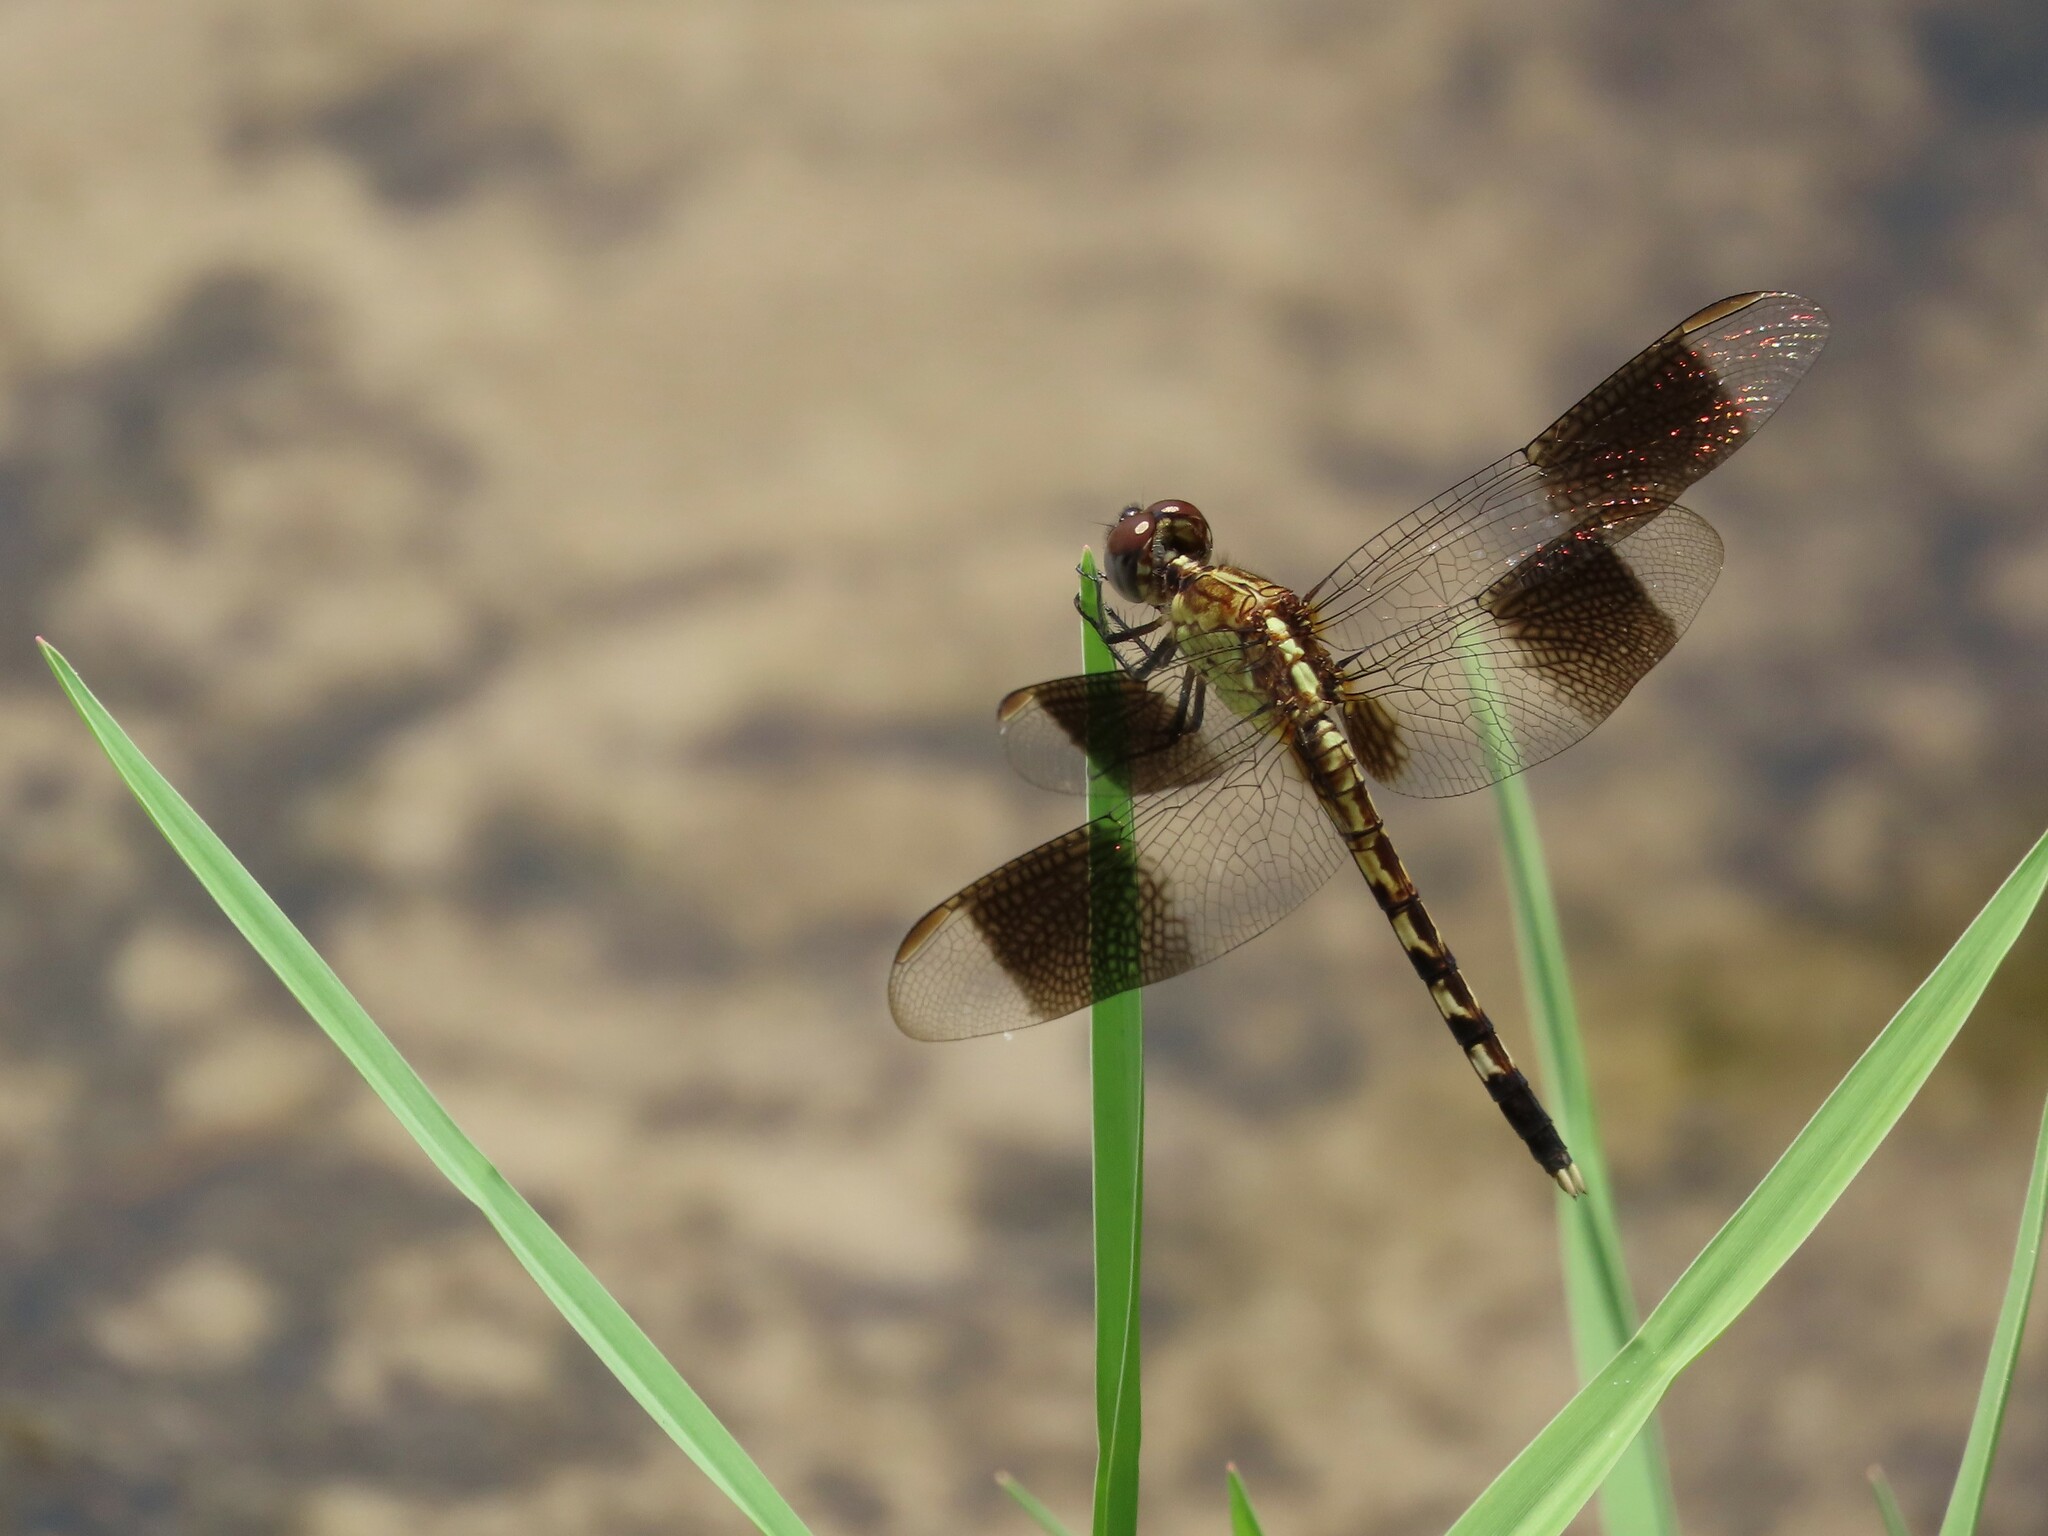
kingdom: Animalia
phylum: Arthropoda
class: Insecta
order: Odonata
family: Libellulidae
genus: Erythrodiplax
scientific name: Erythrodiplax umbrata
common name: Band-winged dragonlet
